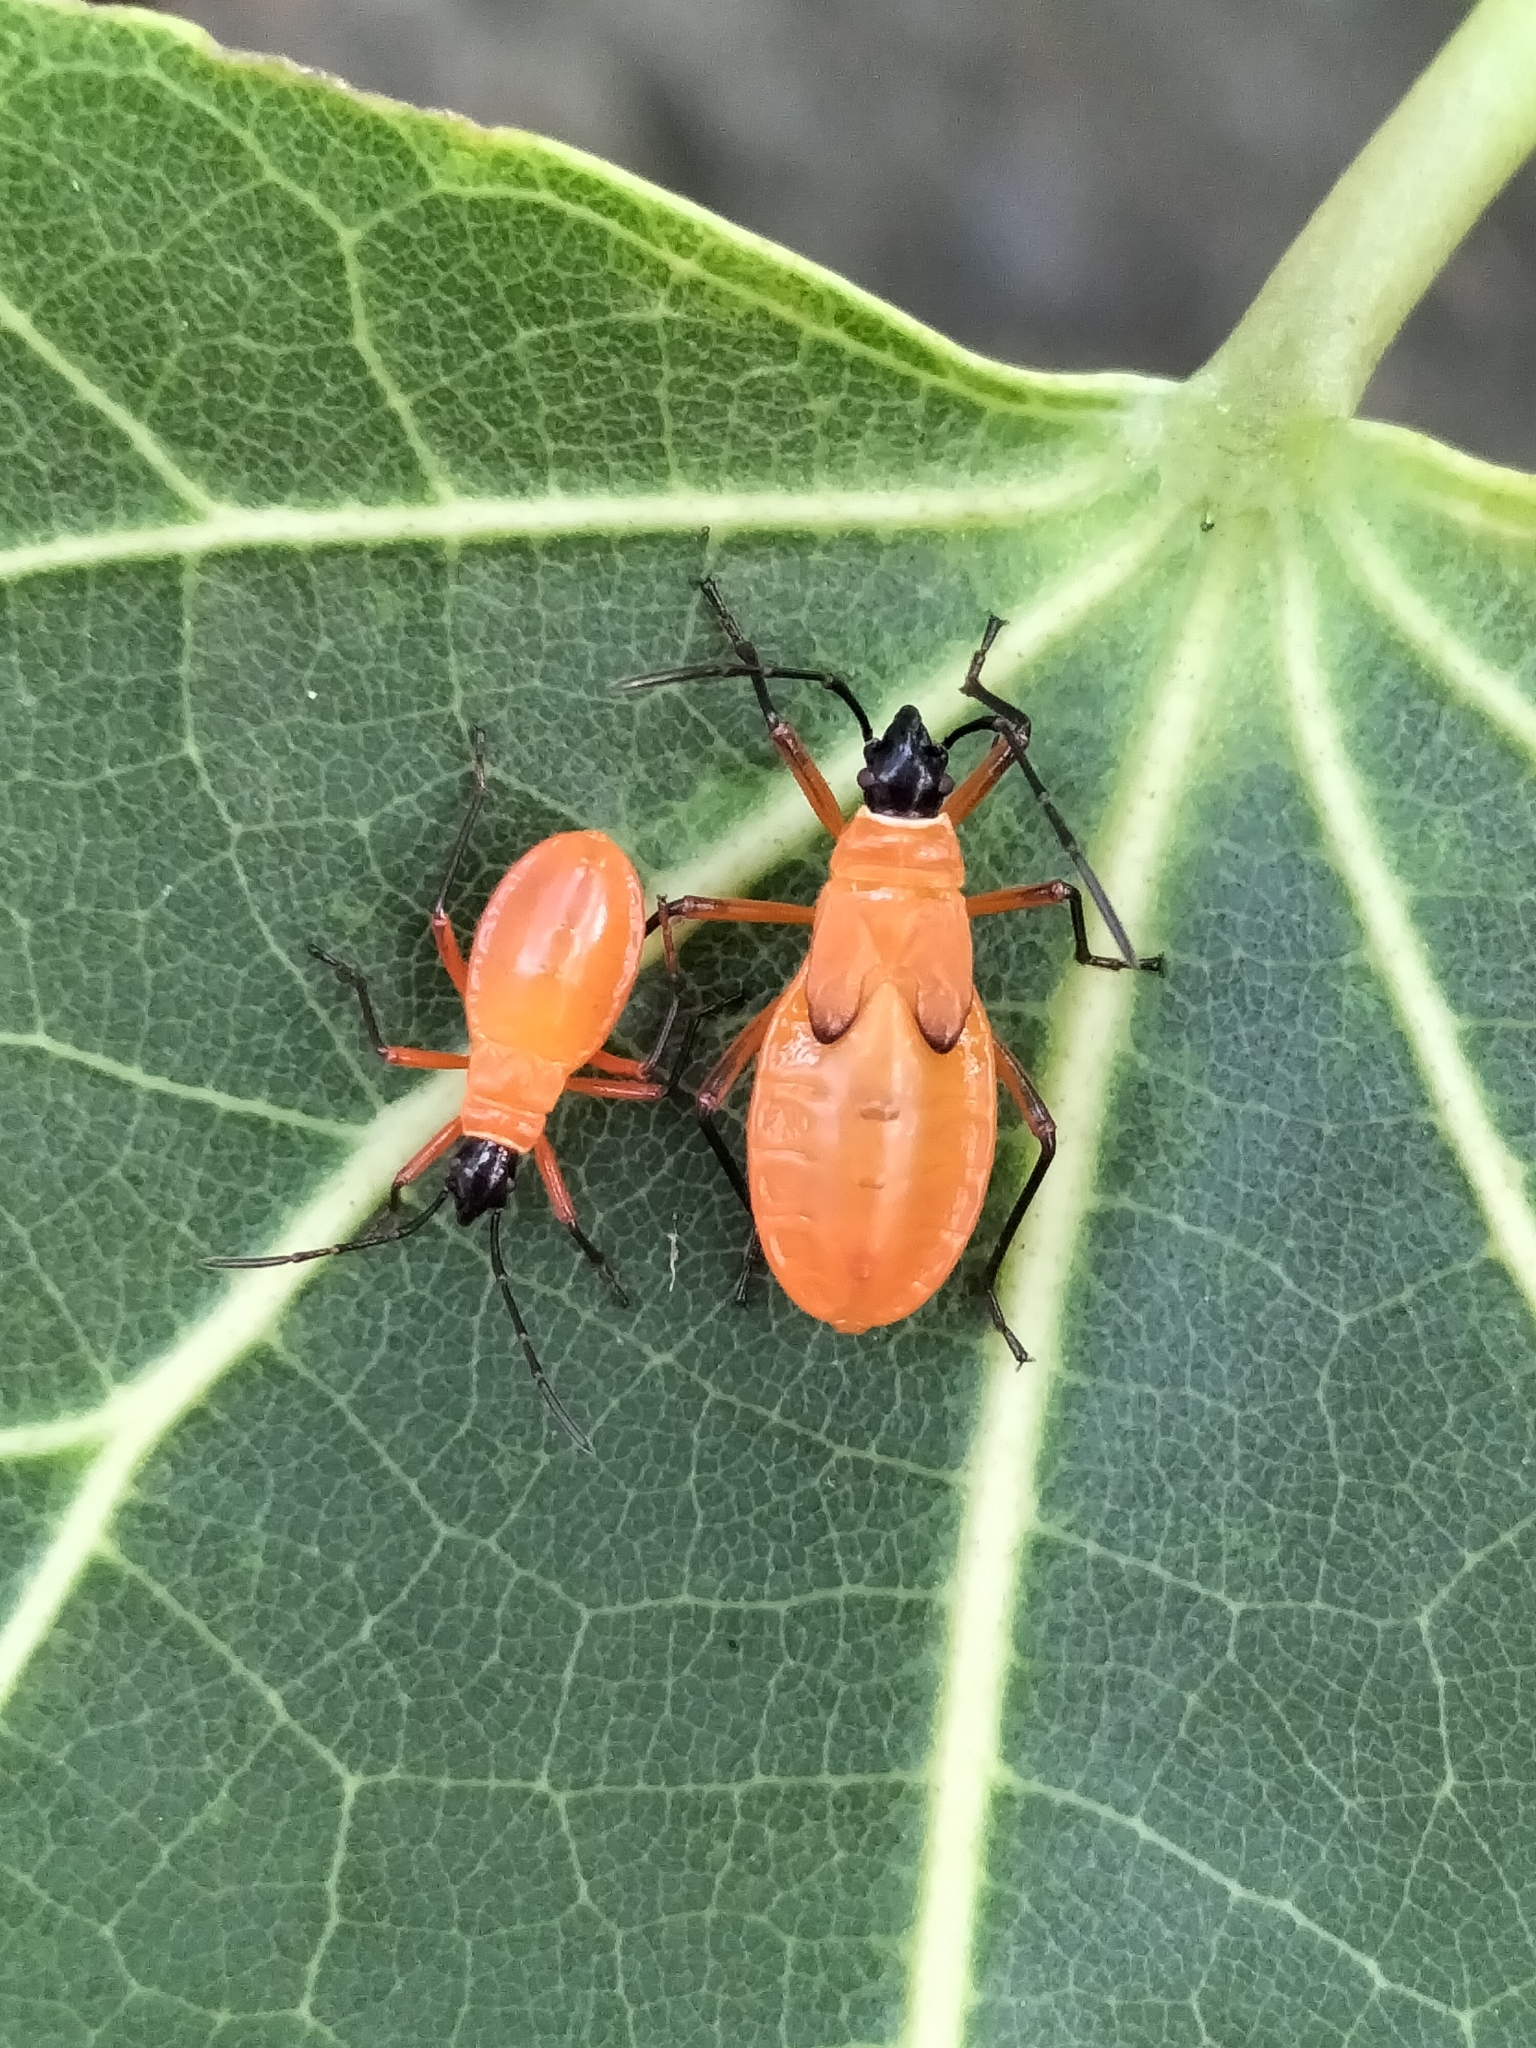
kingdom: Animalia
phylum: Arthropoda
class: Insecta
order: Hemiptera
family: Pyrrhocoridae
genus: Dysdercus
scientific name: Dysdercus decussatus
